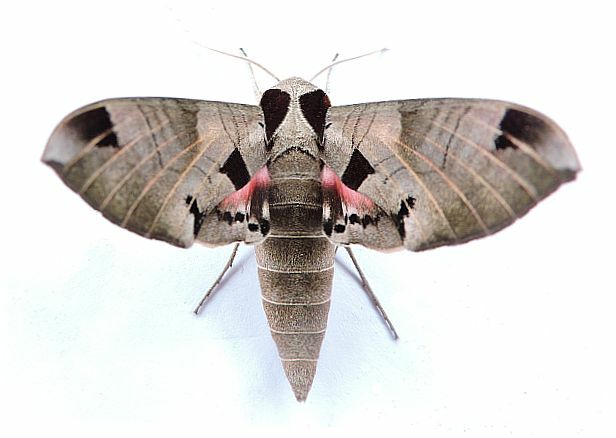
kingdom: Animalia
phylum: Arthropoda
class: Insecta
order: Lepidoptera
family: Sphingidae
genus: Eumorpha
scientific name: Eumorpha achemon
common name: Achemon sphinx
